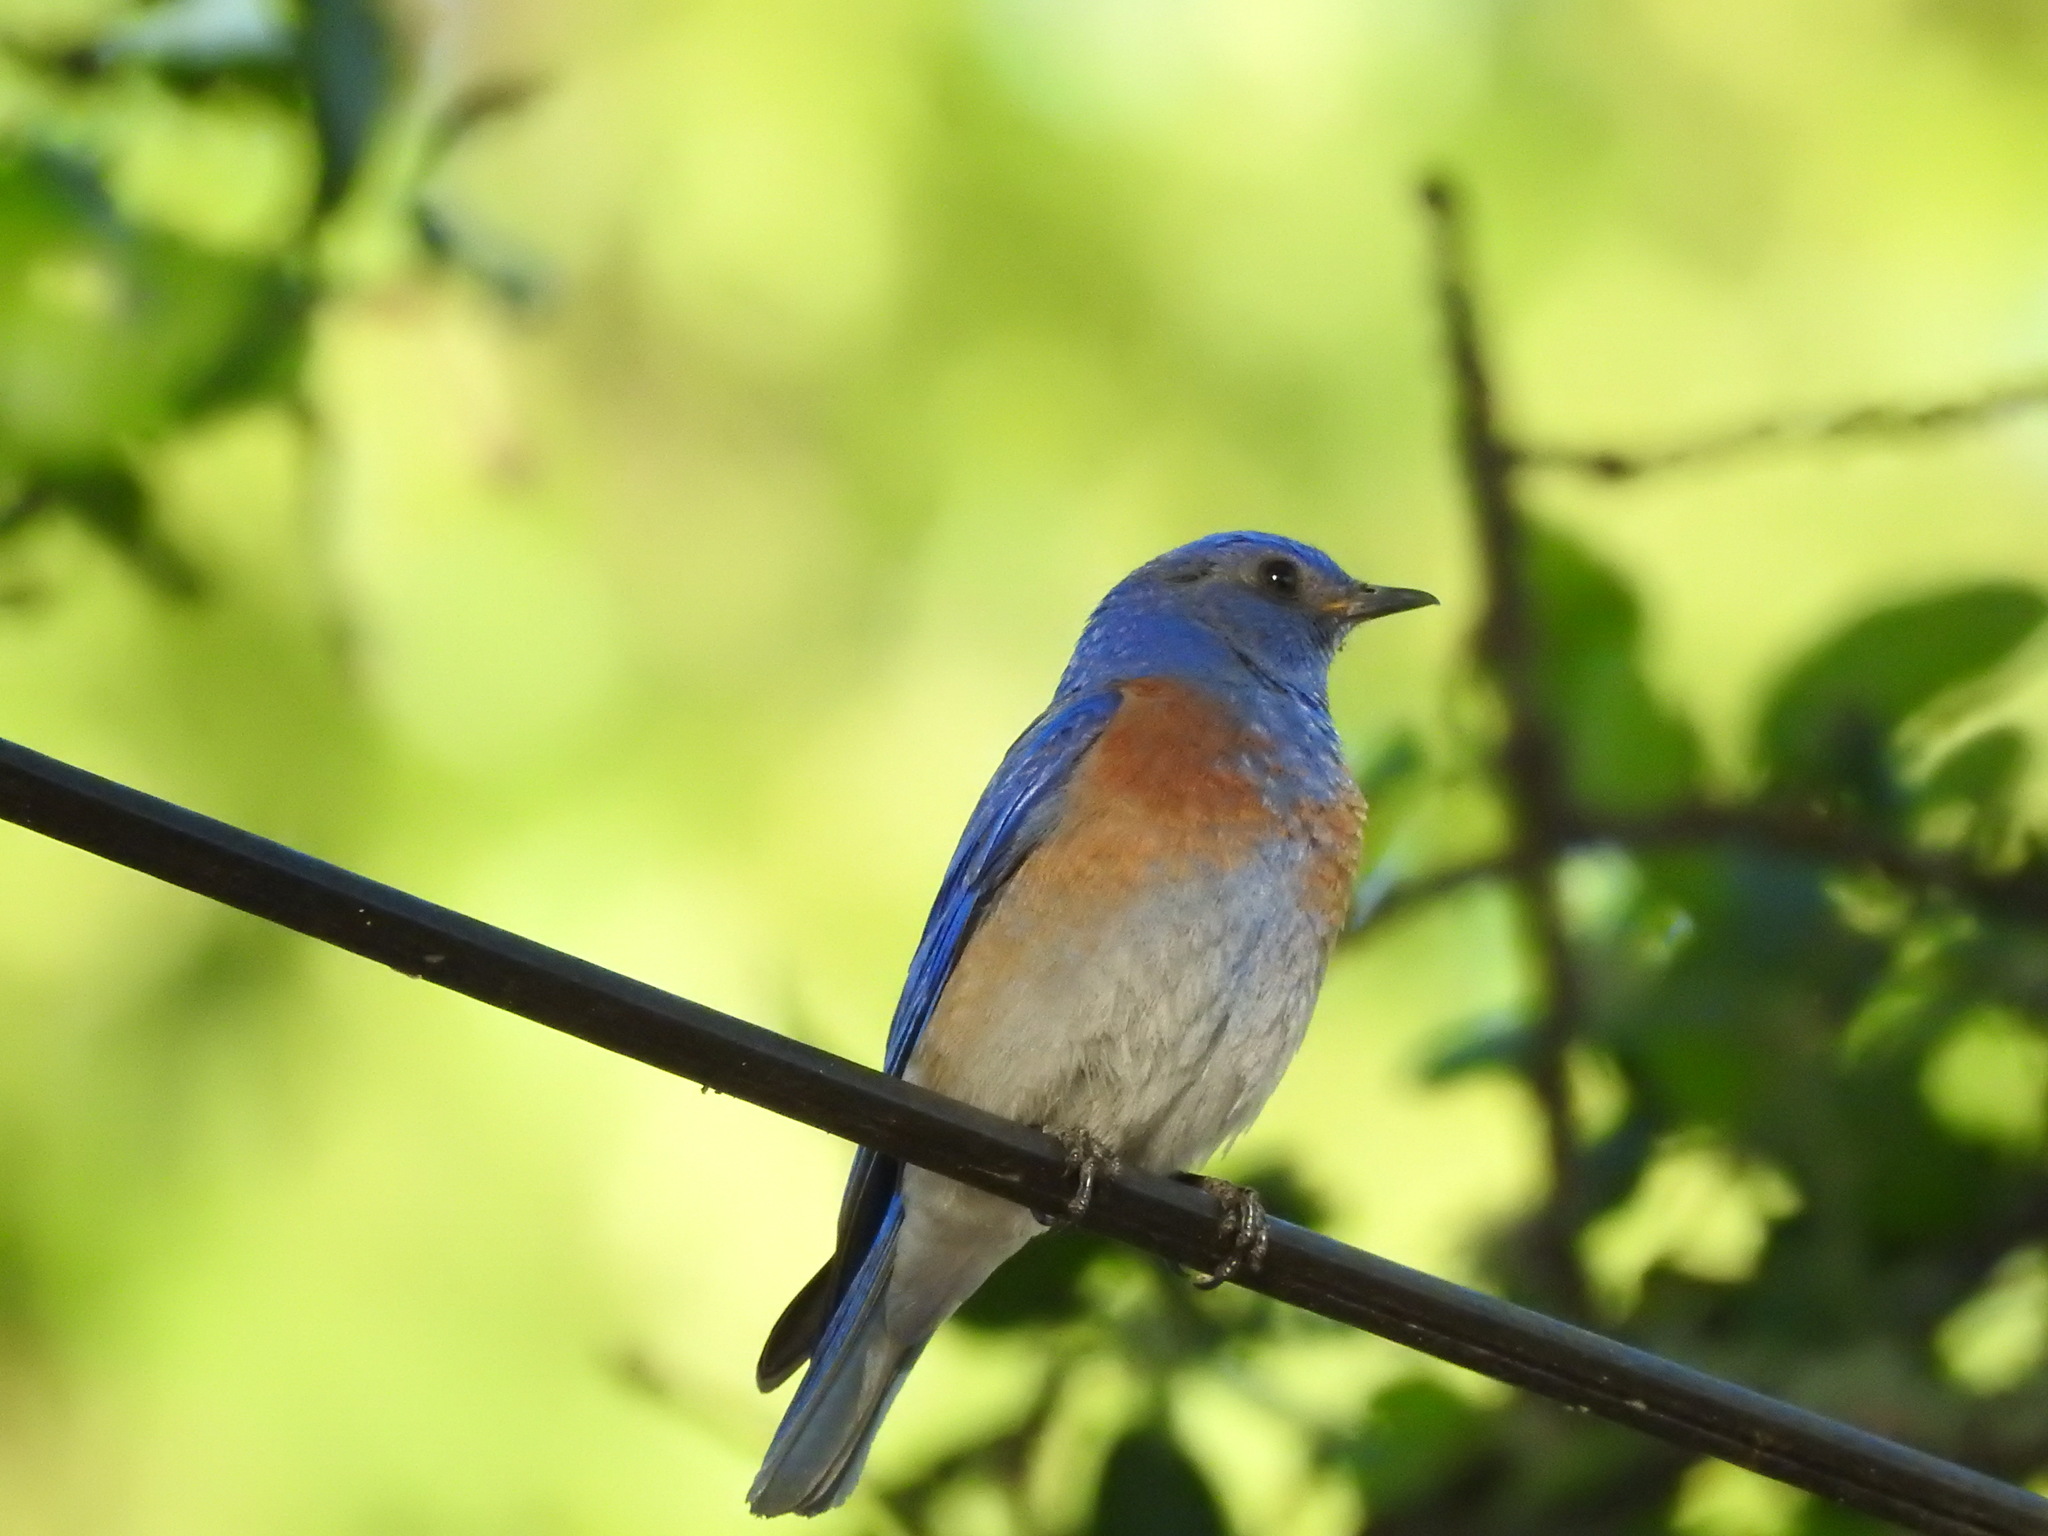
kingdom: Animalia
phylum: Chordata
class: Aves
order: Passeriformes
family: Turdidae
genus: Sialia
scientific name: Sialia mexicana
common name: Western bluebird
